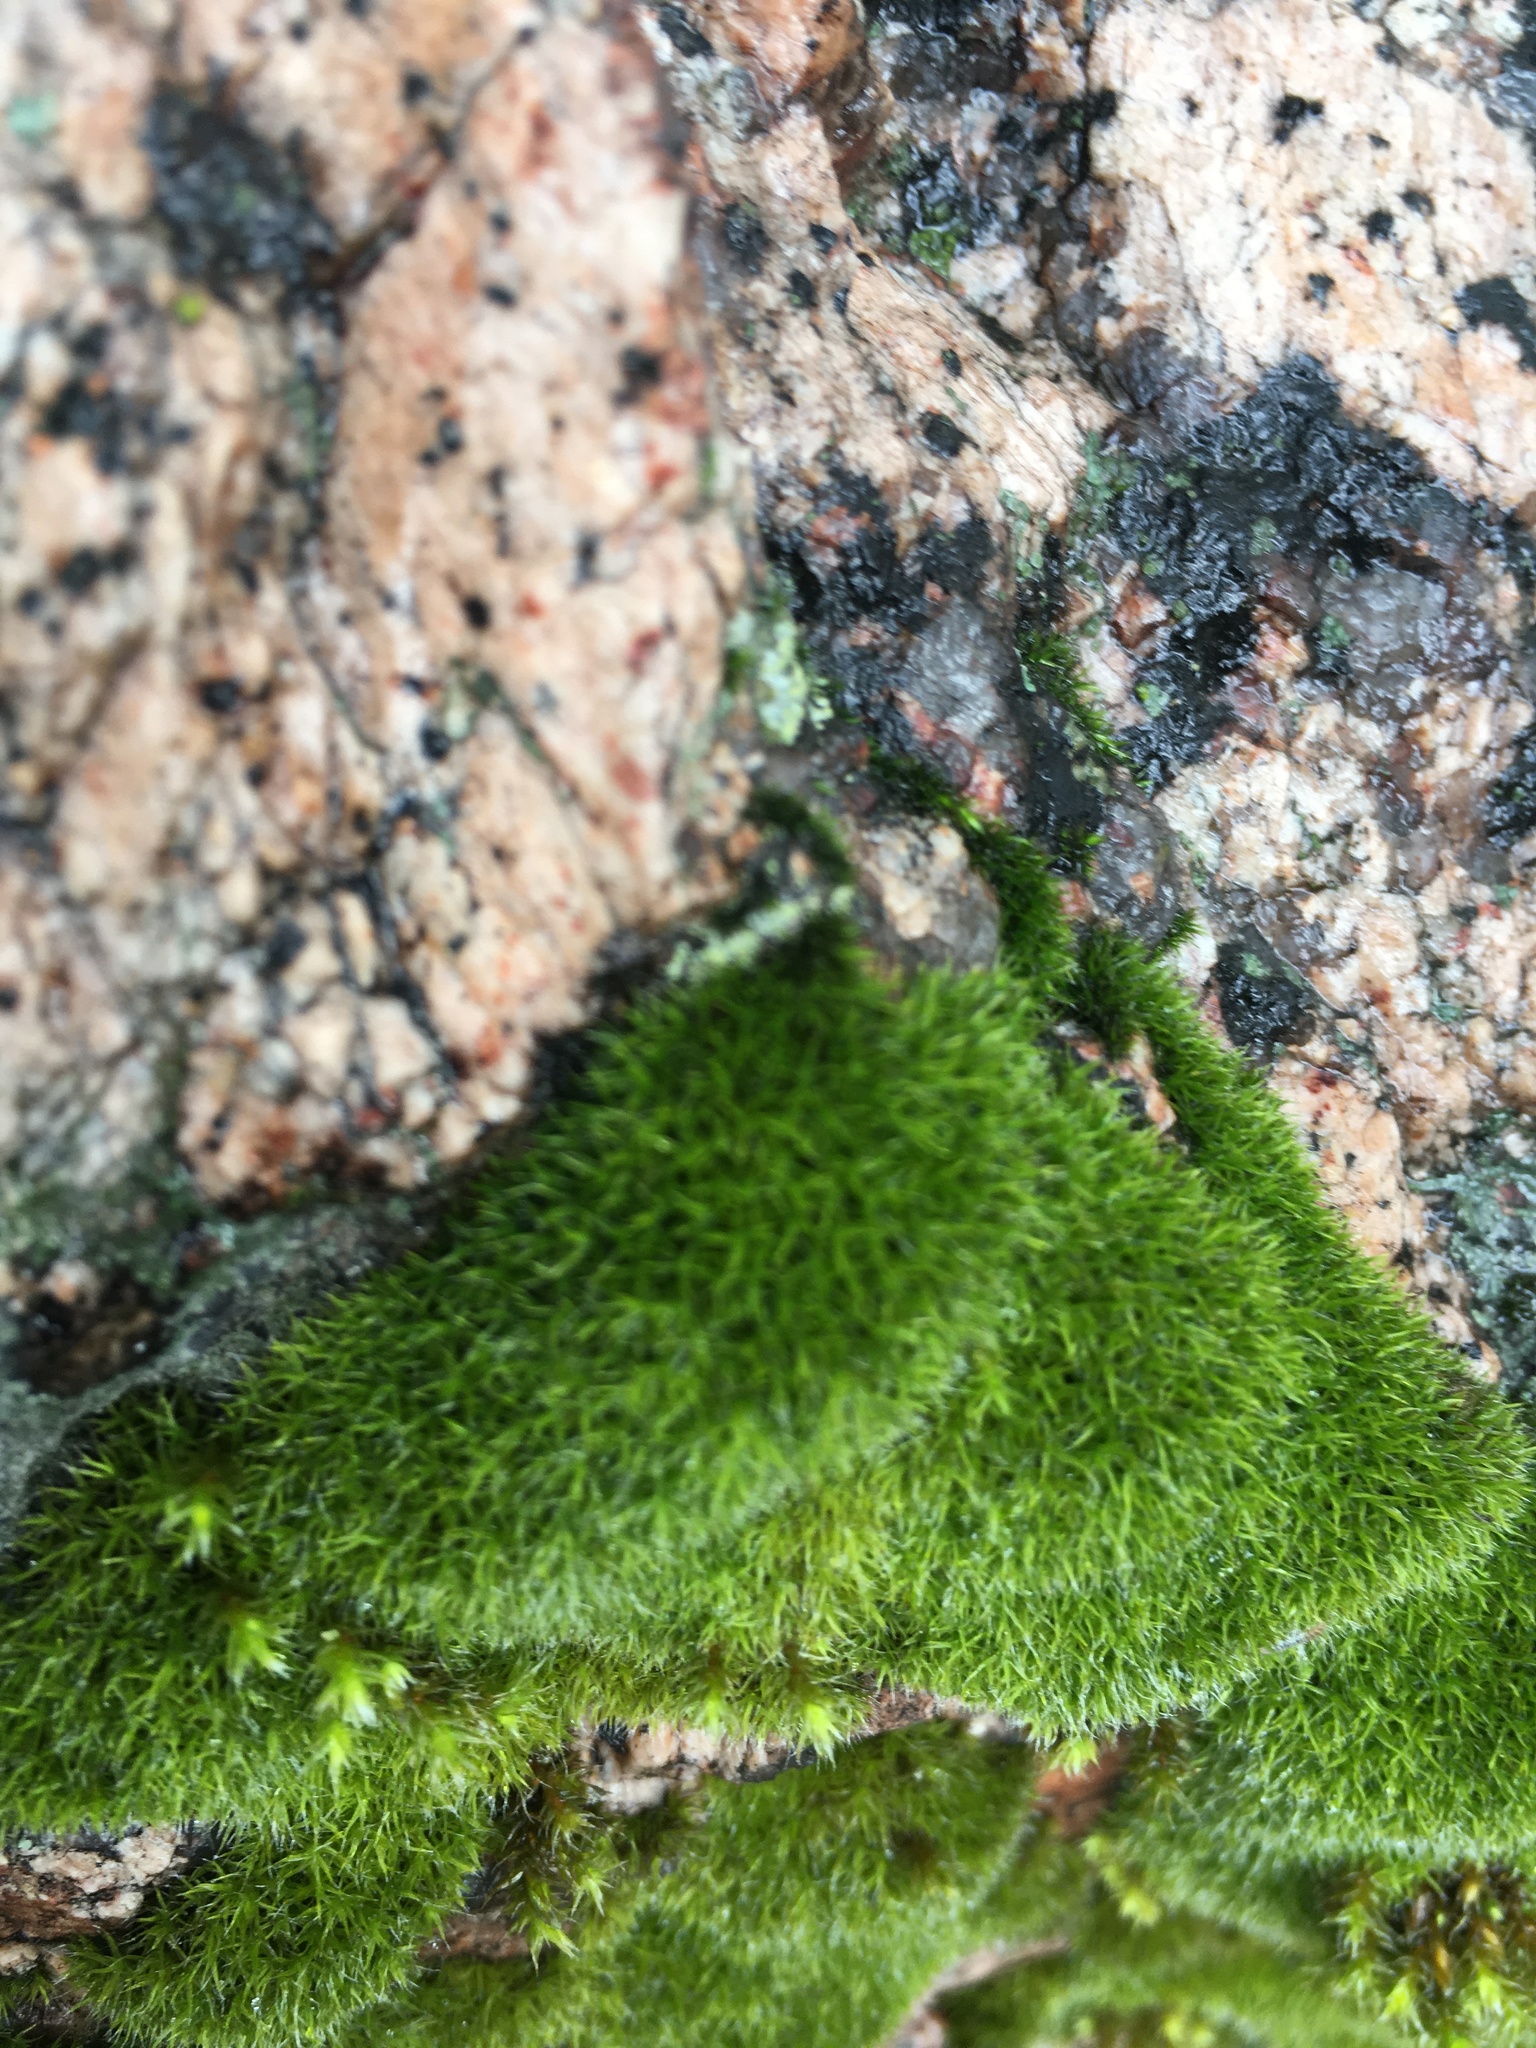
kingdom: Plantae
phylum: Bryophyta
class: Bryopsida
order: Dicranales
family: Dicranaceae
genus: Orthodicranum
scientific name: Orthodicranum montanum
